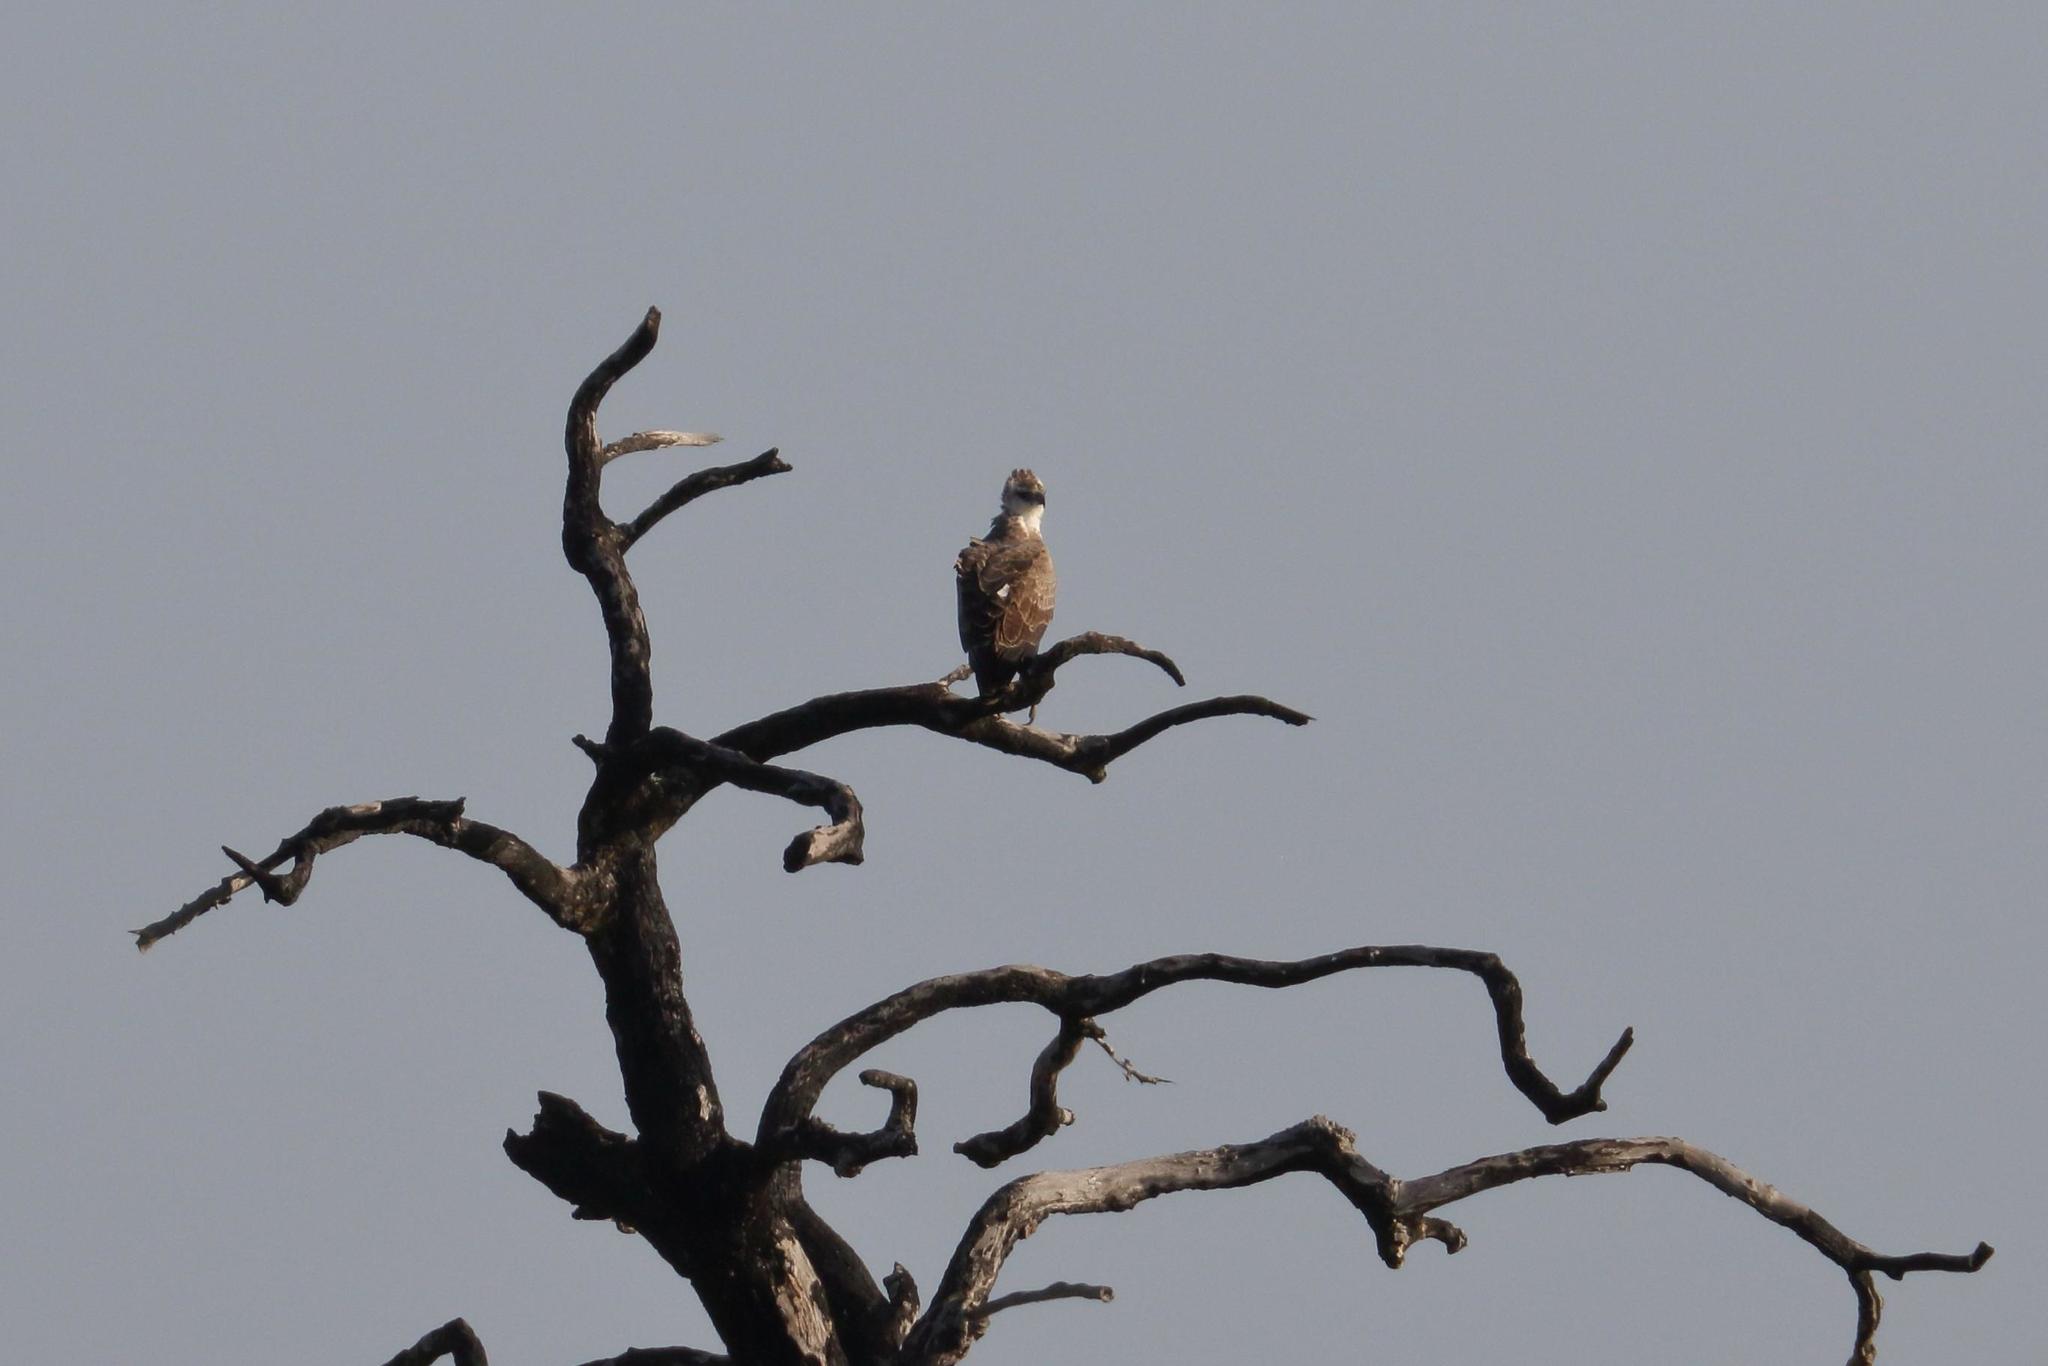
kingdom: Animalia
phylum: Chordata
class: Aves
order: Accipitriformes
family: Accipitridae
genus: Polemaetus
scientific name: Polemaetus bellicosus
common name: Martial eagle
